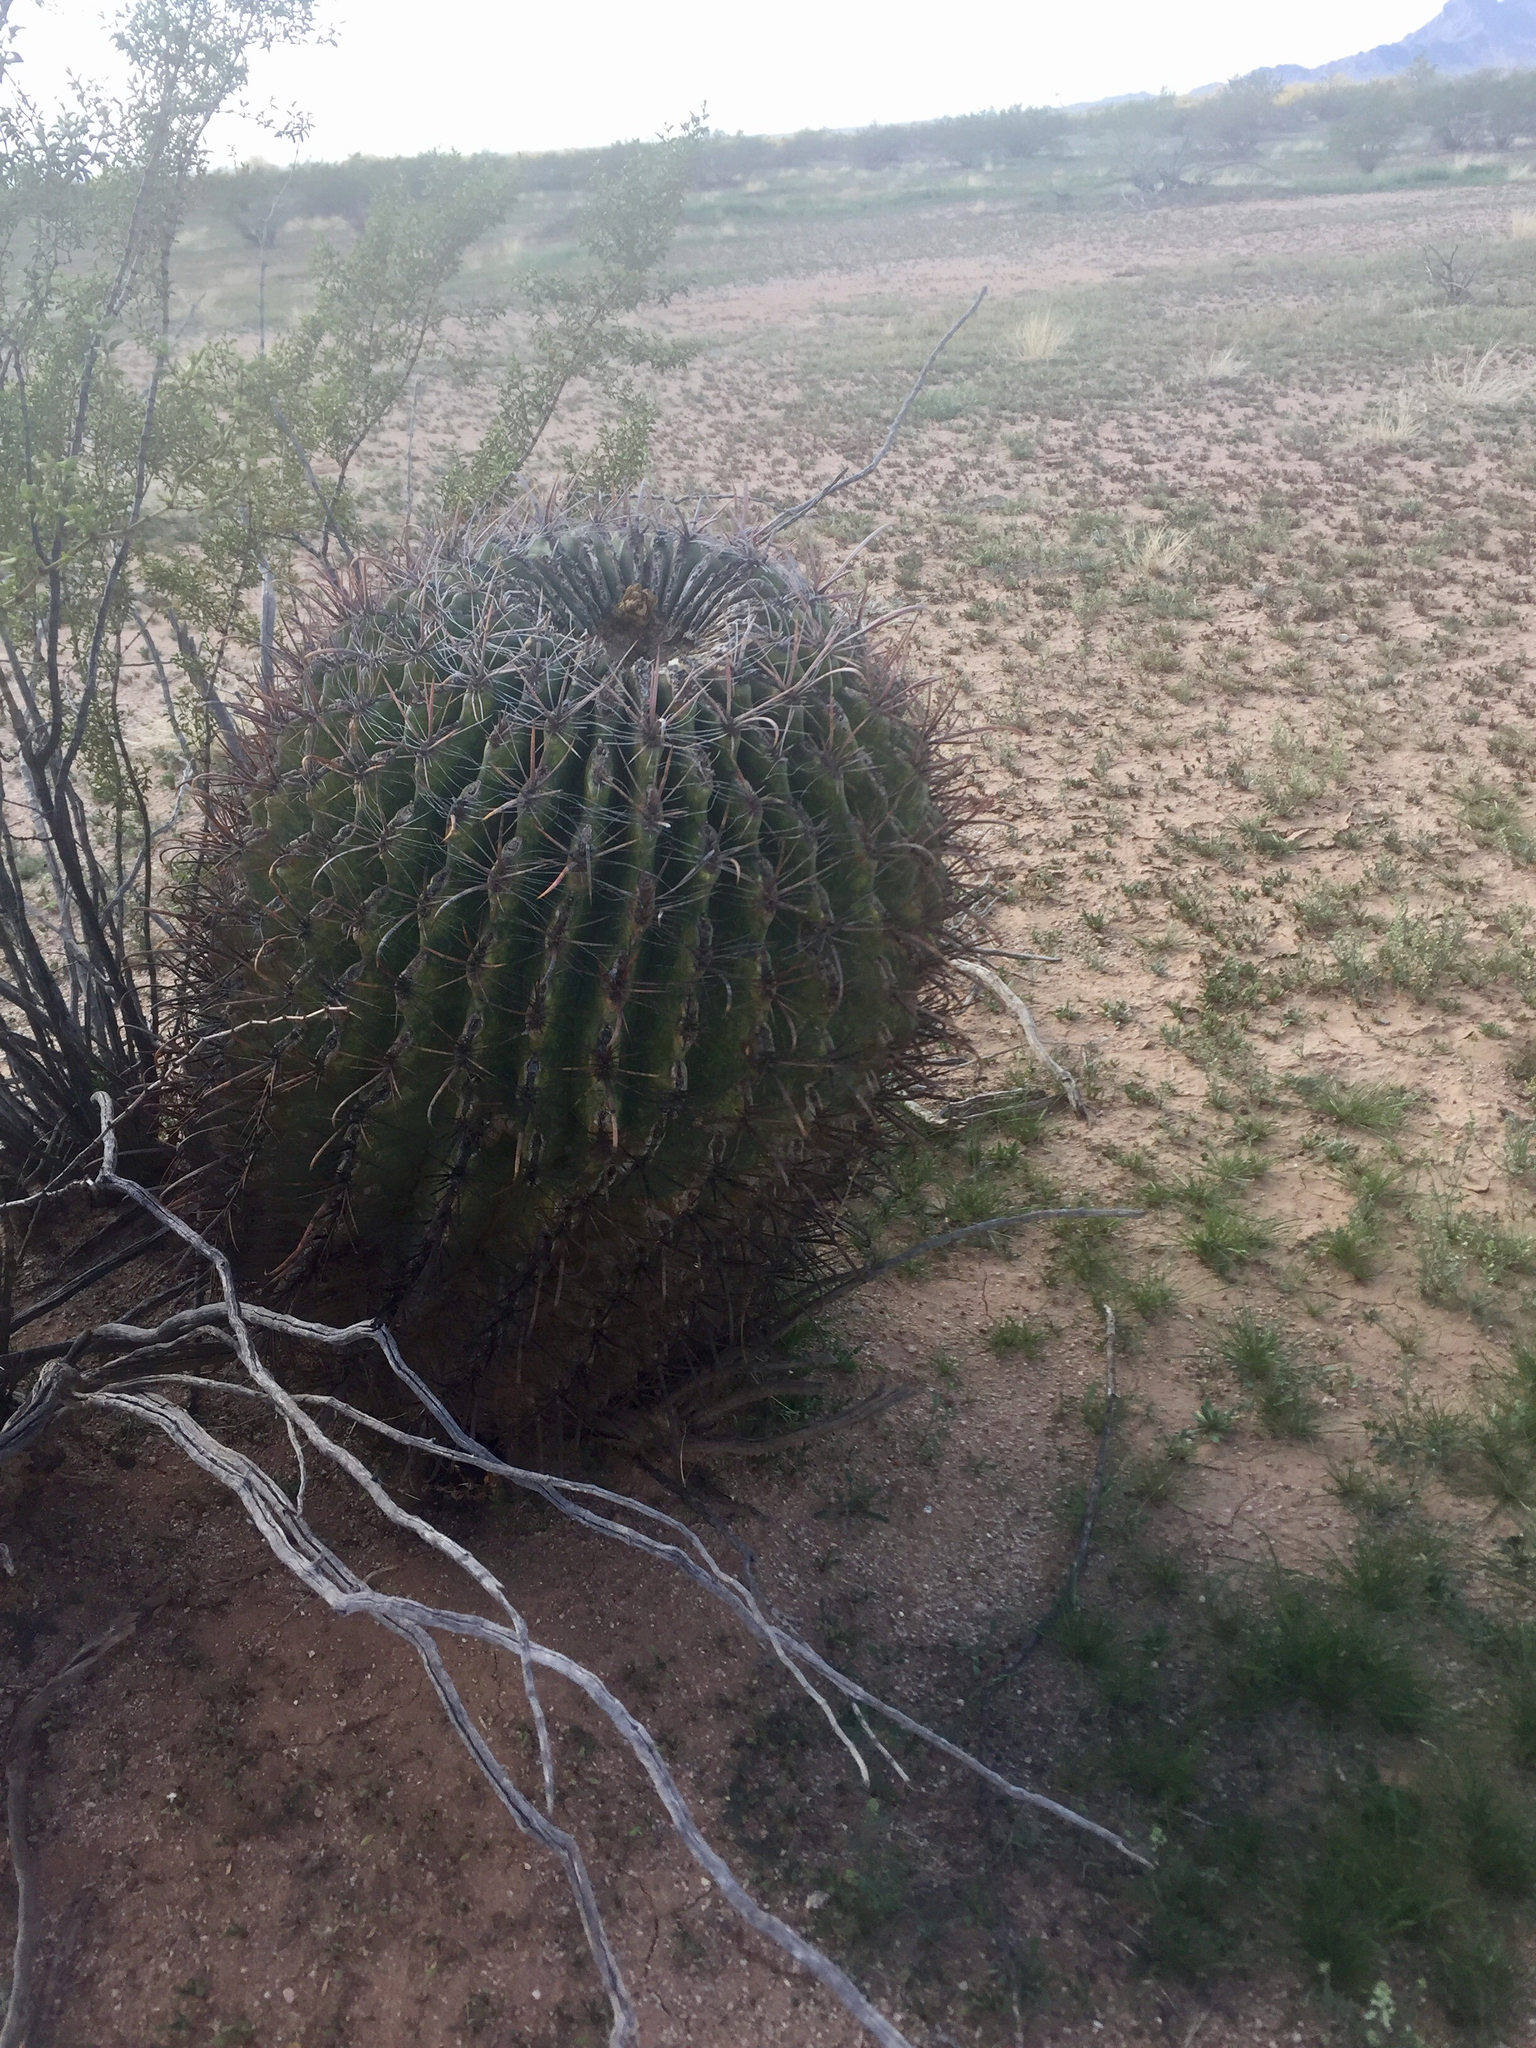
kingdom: Plantae
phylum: Tracheophyta
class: Magnoliopsida
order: Caryophyllales
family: Cactaceae
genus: Ferocactus
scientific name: Ferocactus wislizeni
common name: Candy barrel cactus
